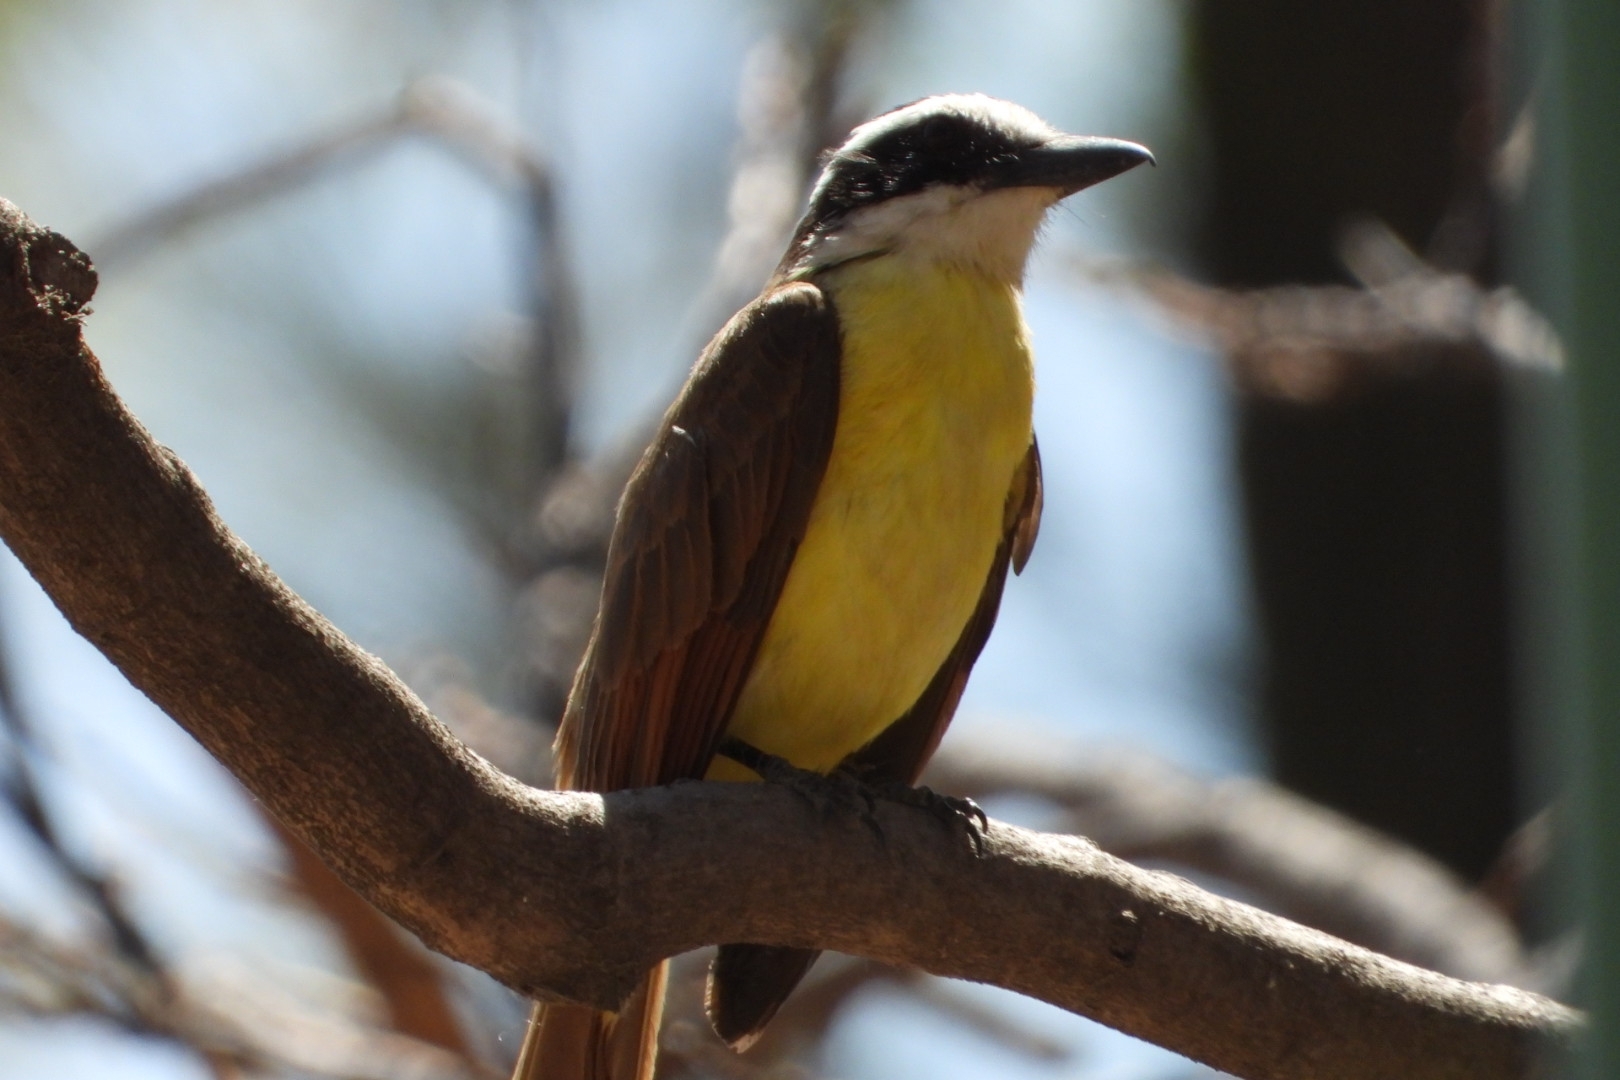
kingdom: Animalia
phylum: Chordata
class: Aves
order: Passeriformes
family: Tyrannidae
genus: Pitangus
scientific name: Pitangus sulphuratus
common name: Great kiskadee
